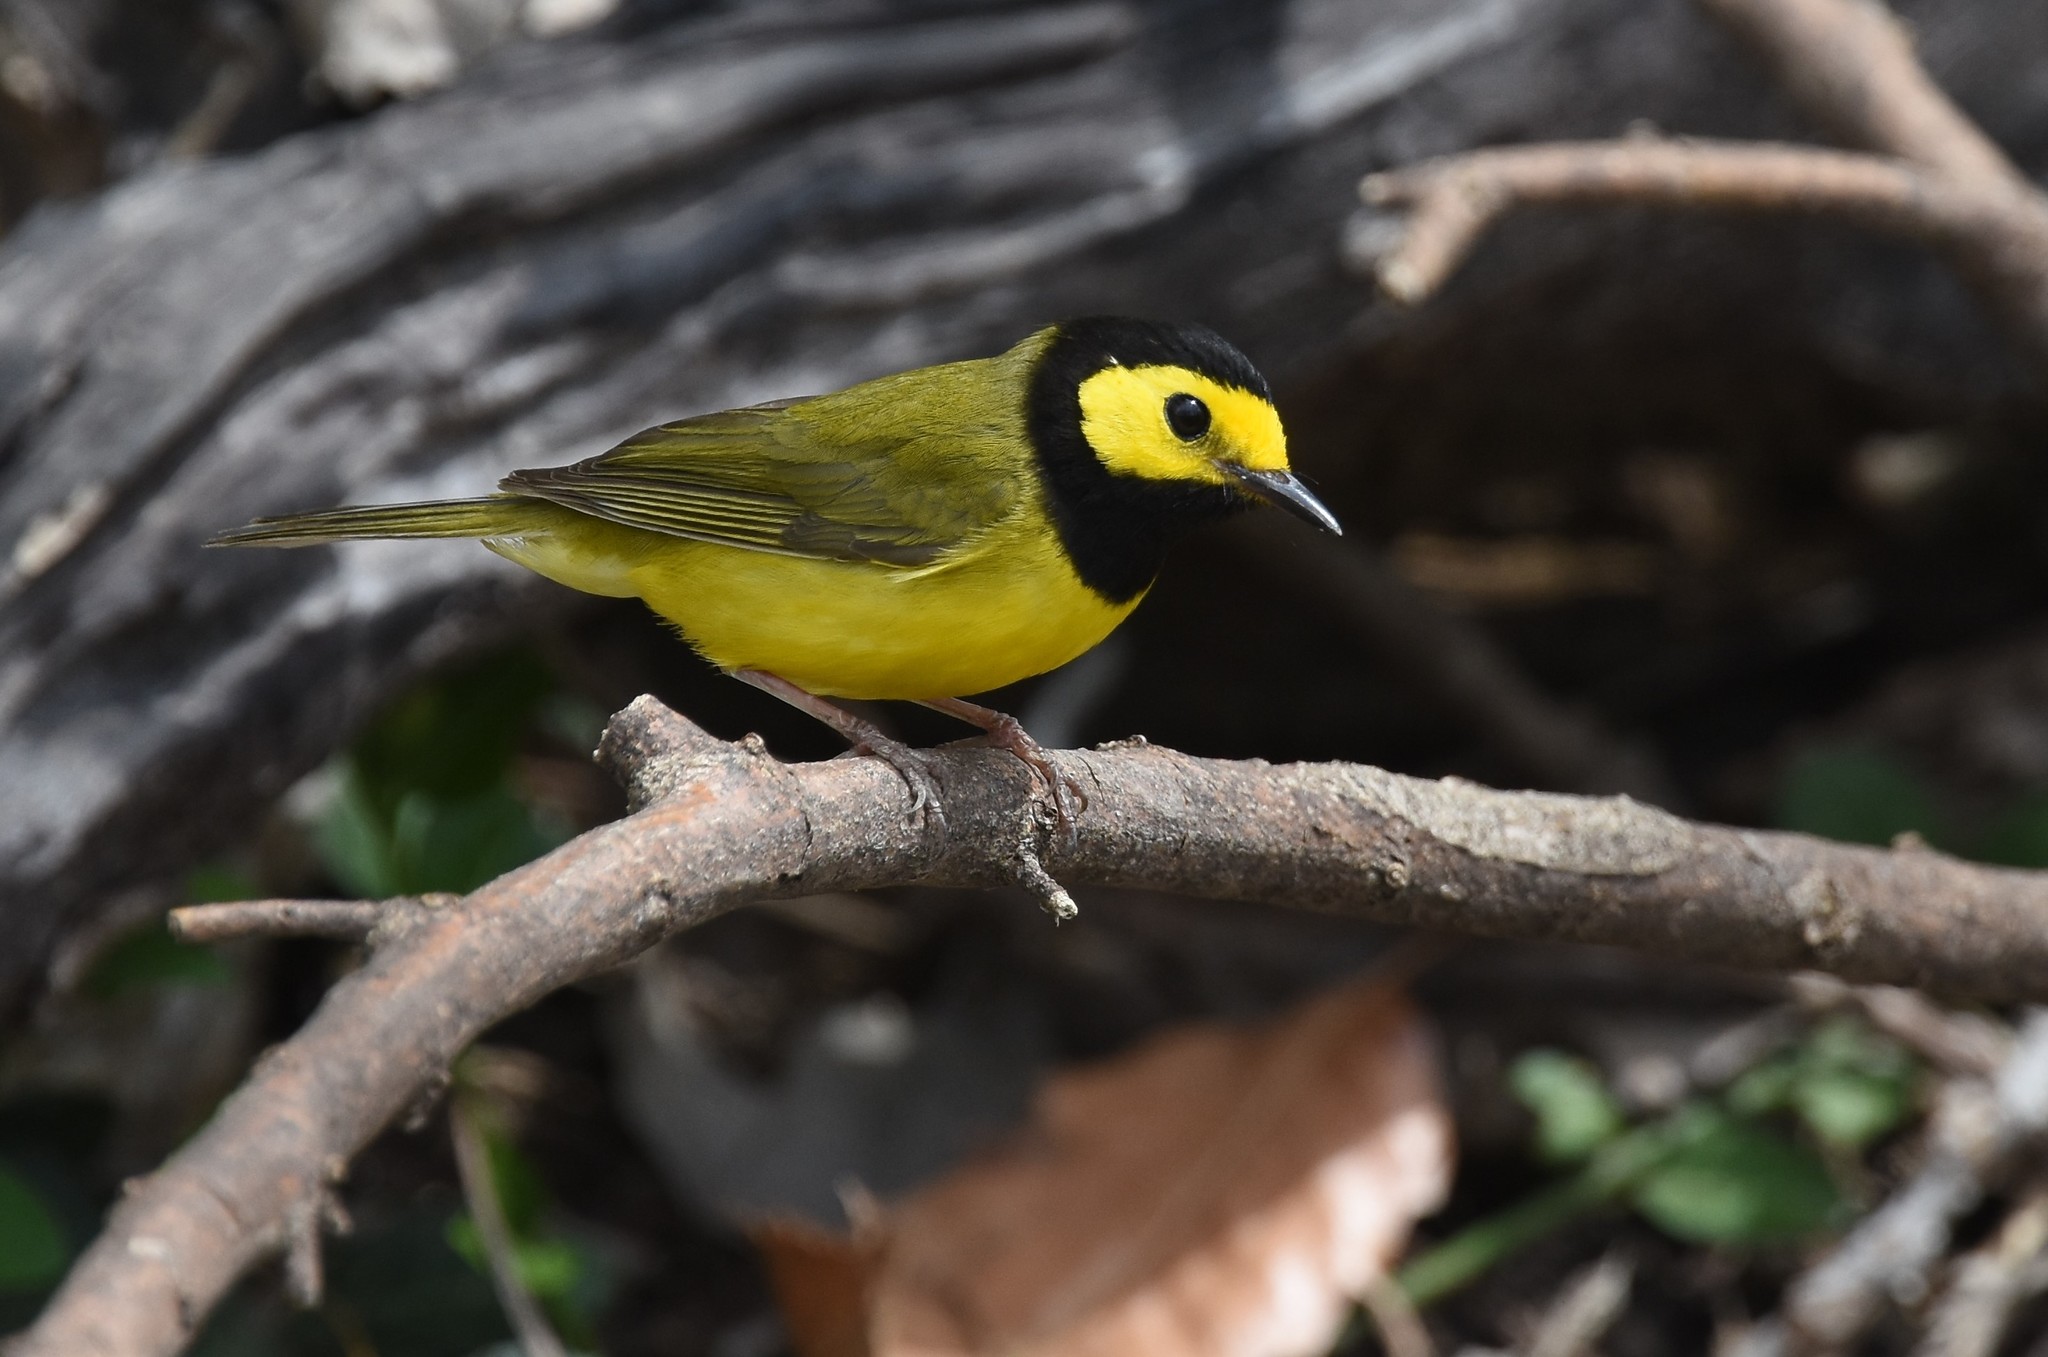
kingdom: Animalia
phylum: Chordata
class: Aves
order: Passeriformes
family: Parulidae
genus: Setophaga
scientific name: Setophaga citrina
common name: Hooded warbler
